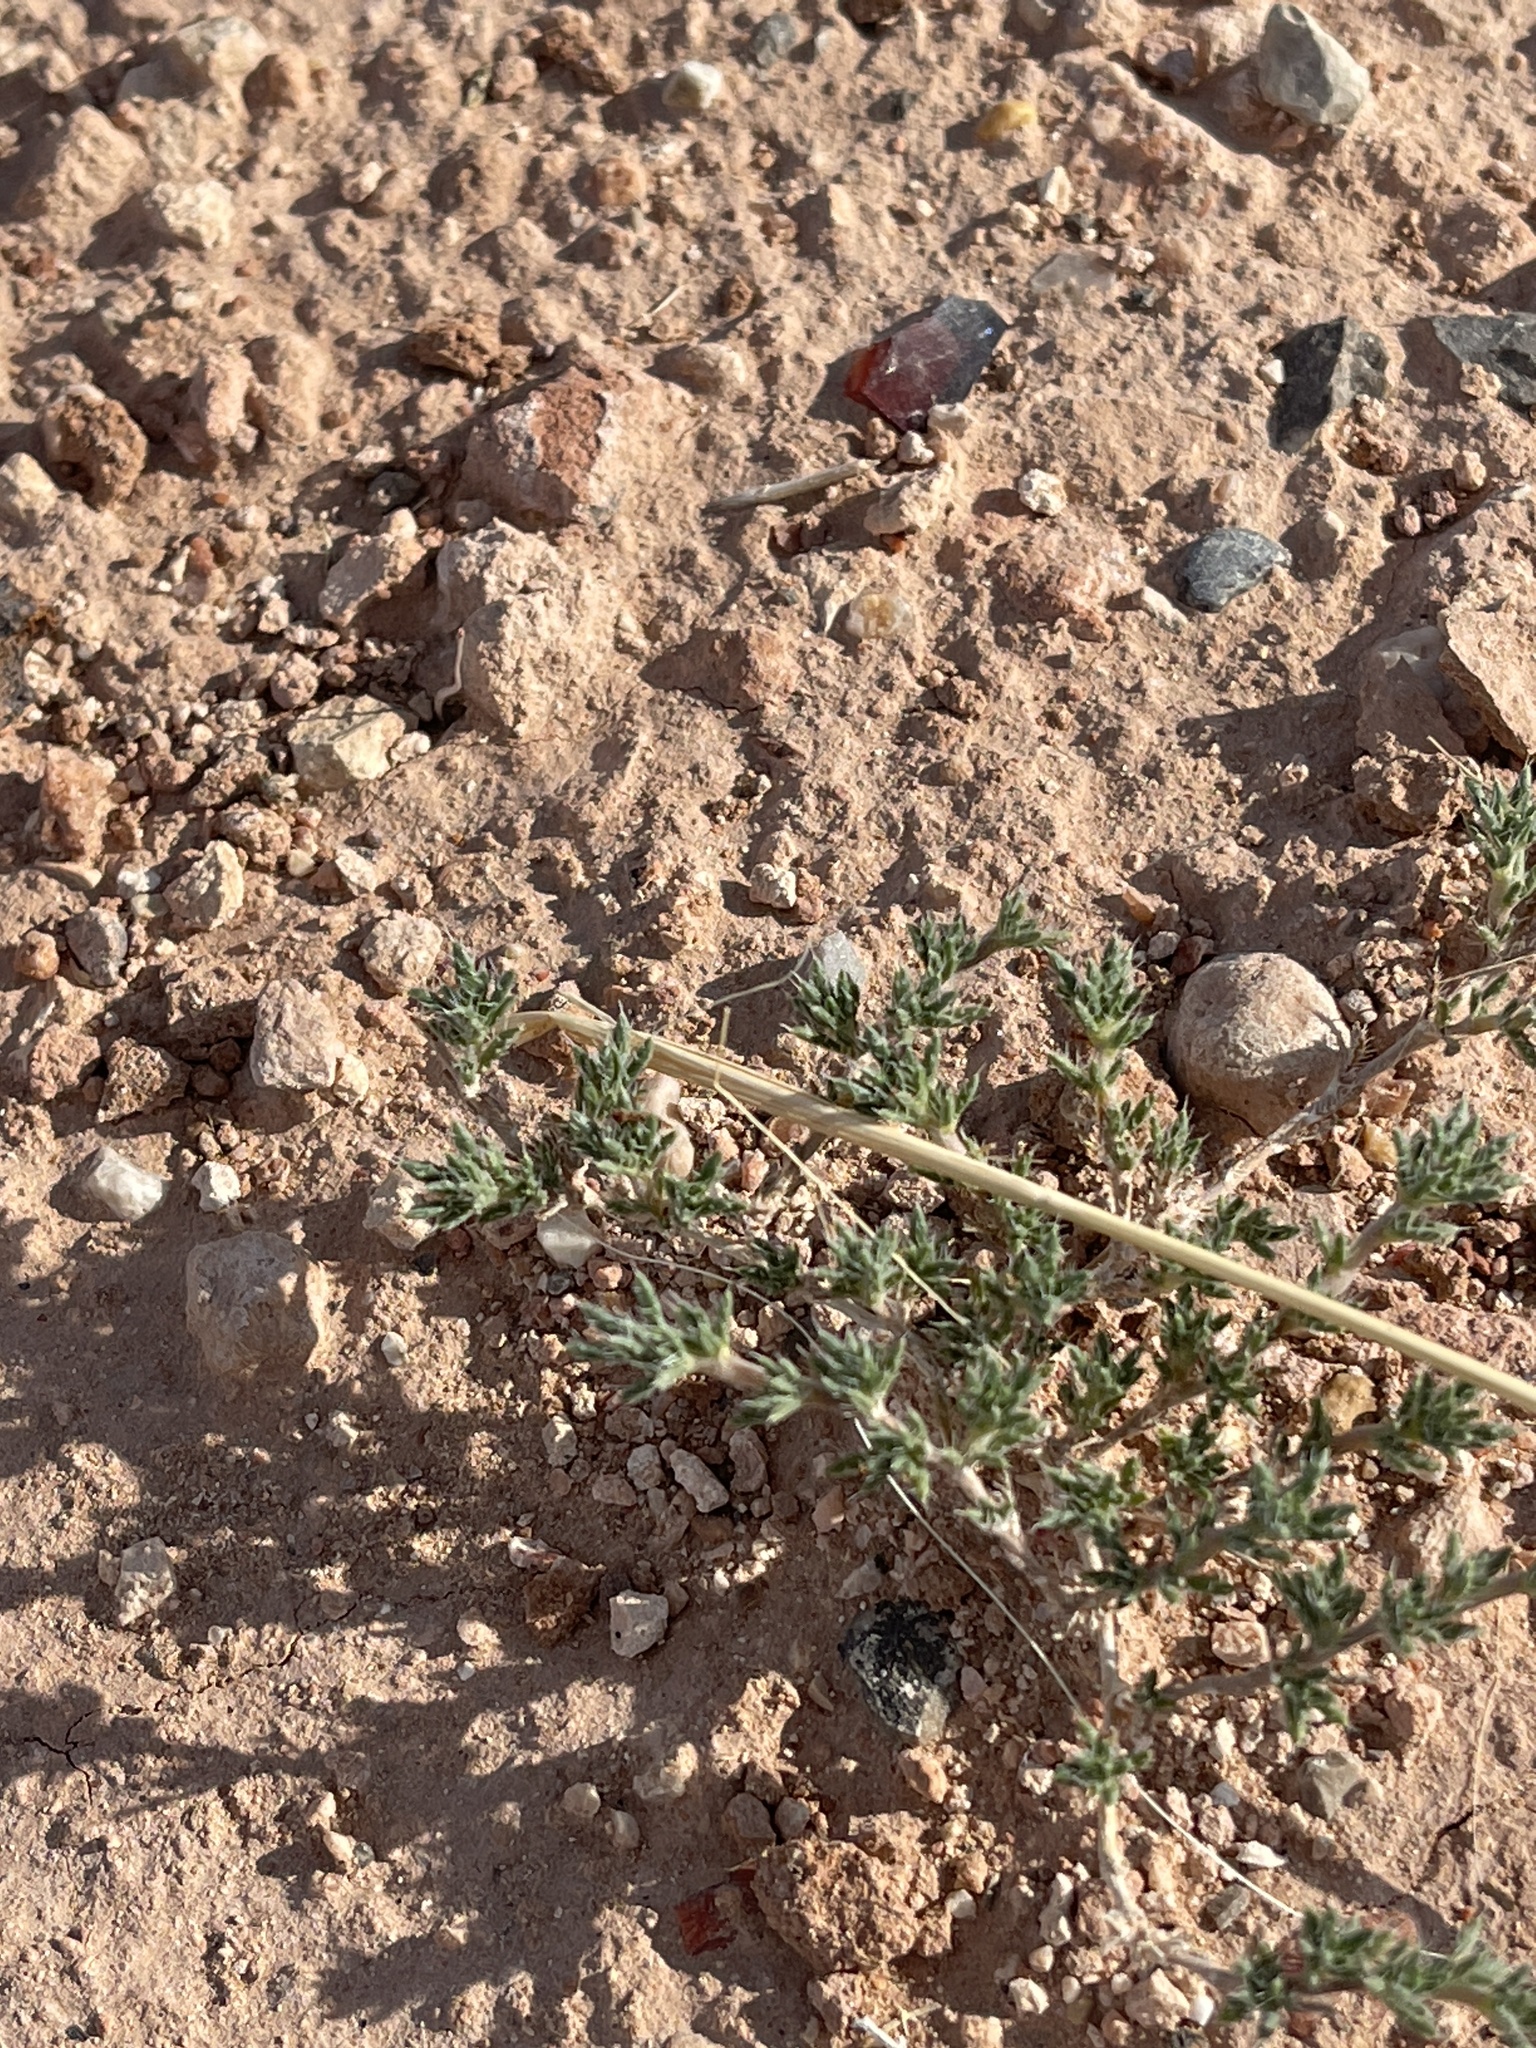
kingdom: Plantae
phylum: Tracheophyta
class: Magnoliopsida
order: Boraginales
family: Ehretiaceae
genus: Tiquilia
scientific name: Tiquilia hispidissima
